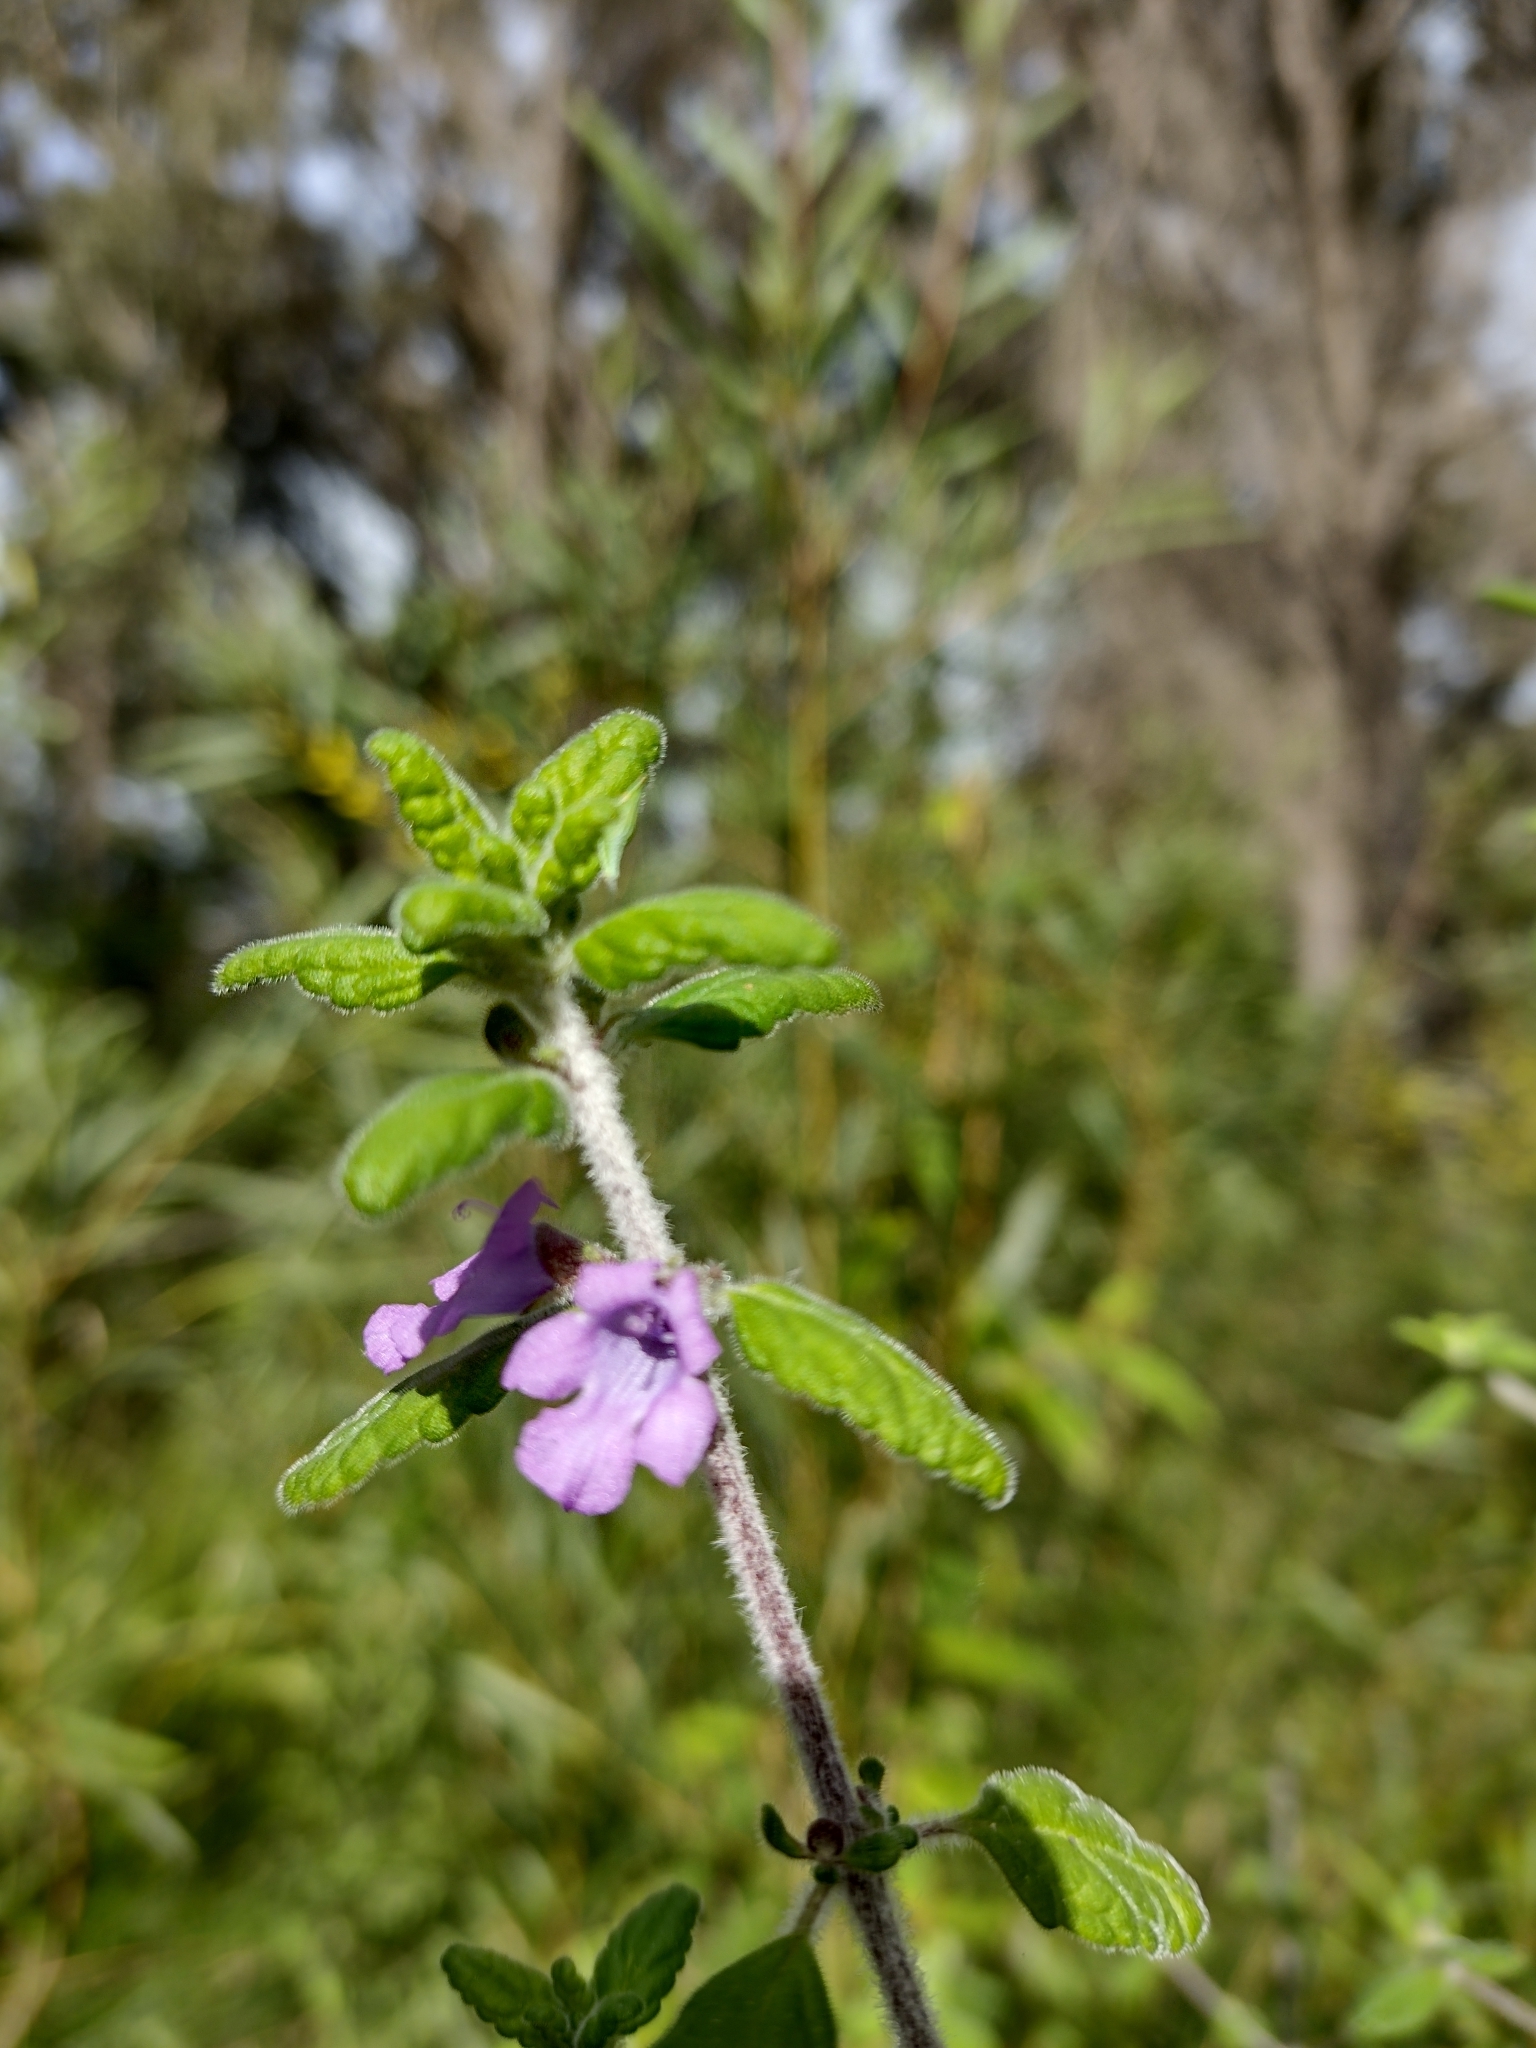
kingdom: Plantae
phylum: Tracheophyta
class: Magnoliopsida
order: Lamiales
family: Lamiaceae
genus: Prostanthera
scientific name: Prostanthera incana
